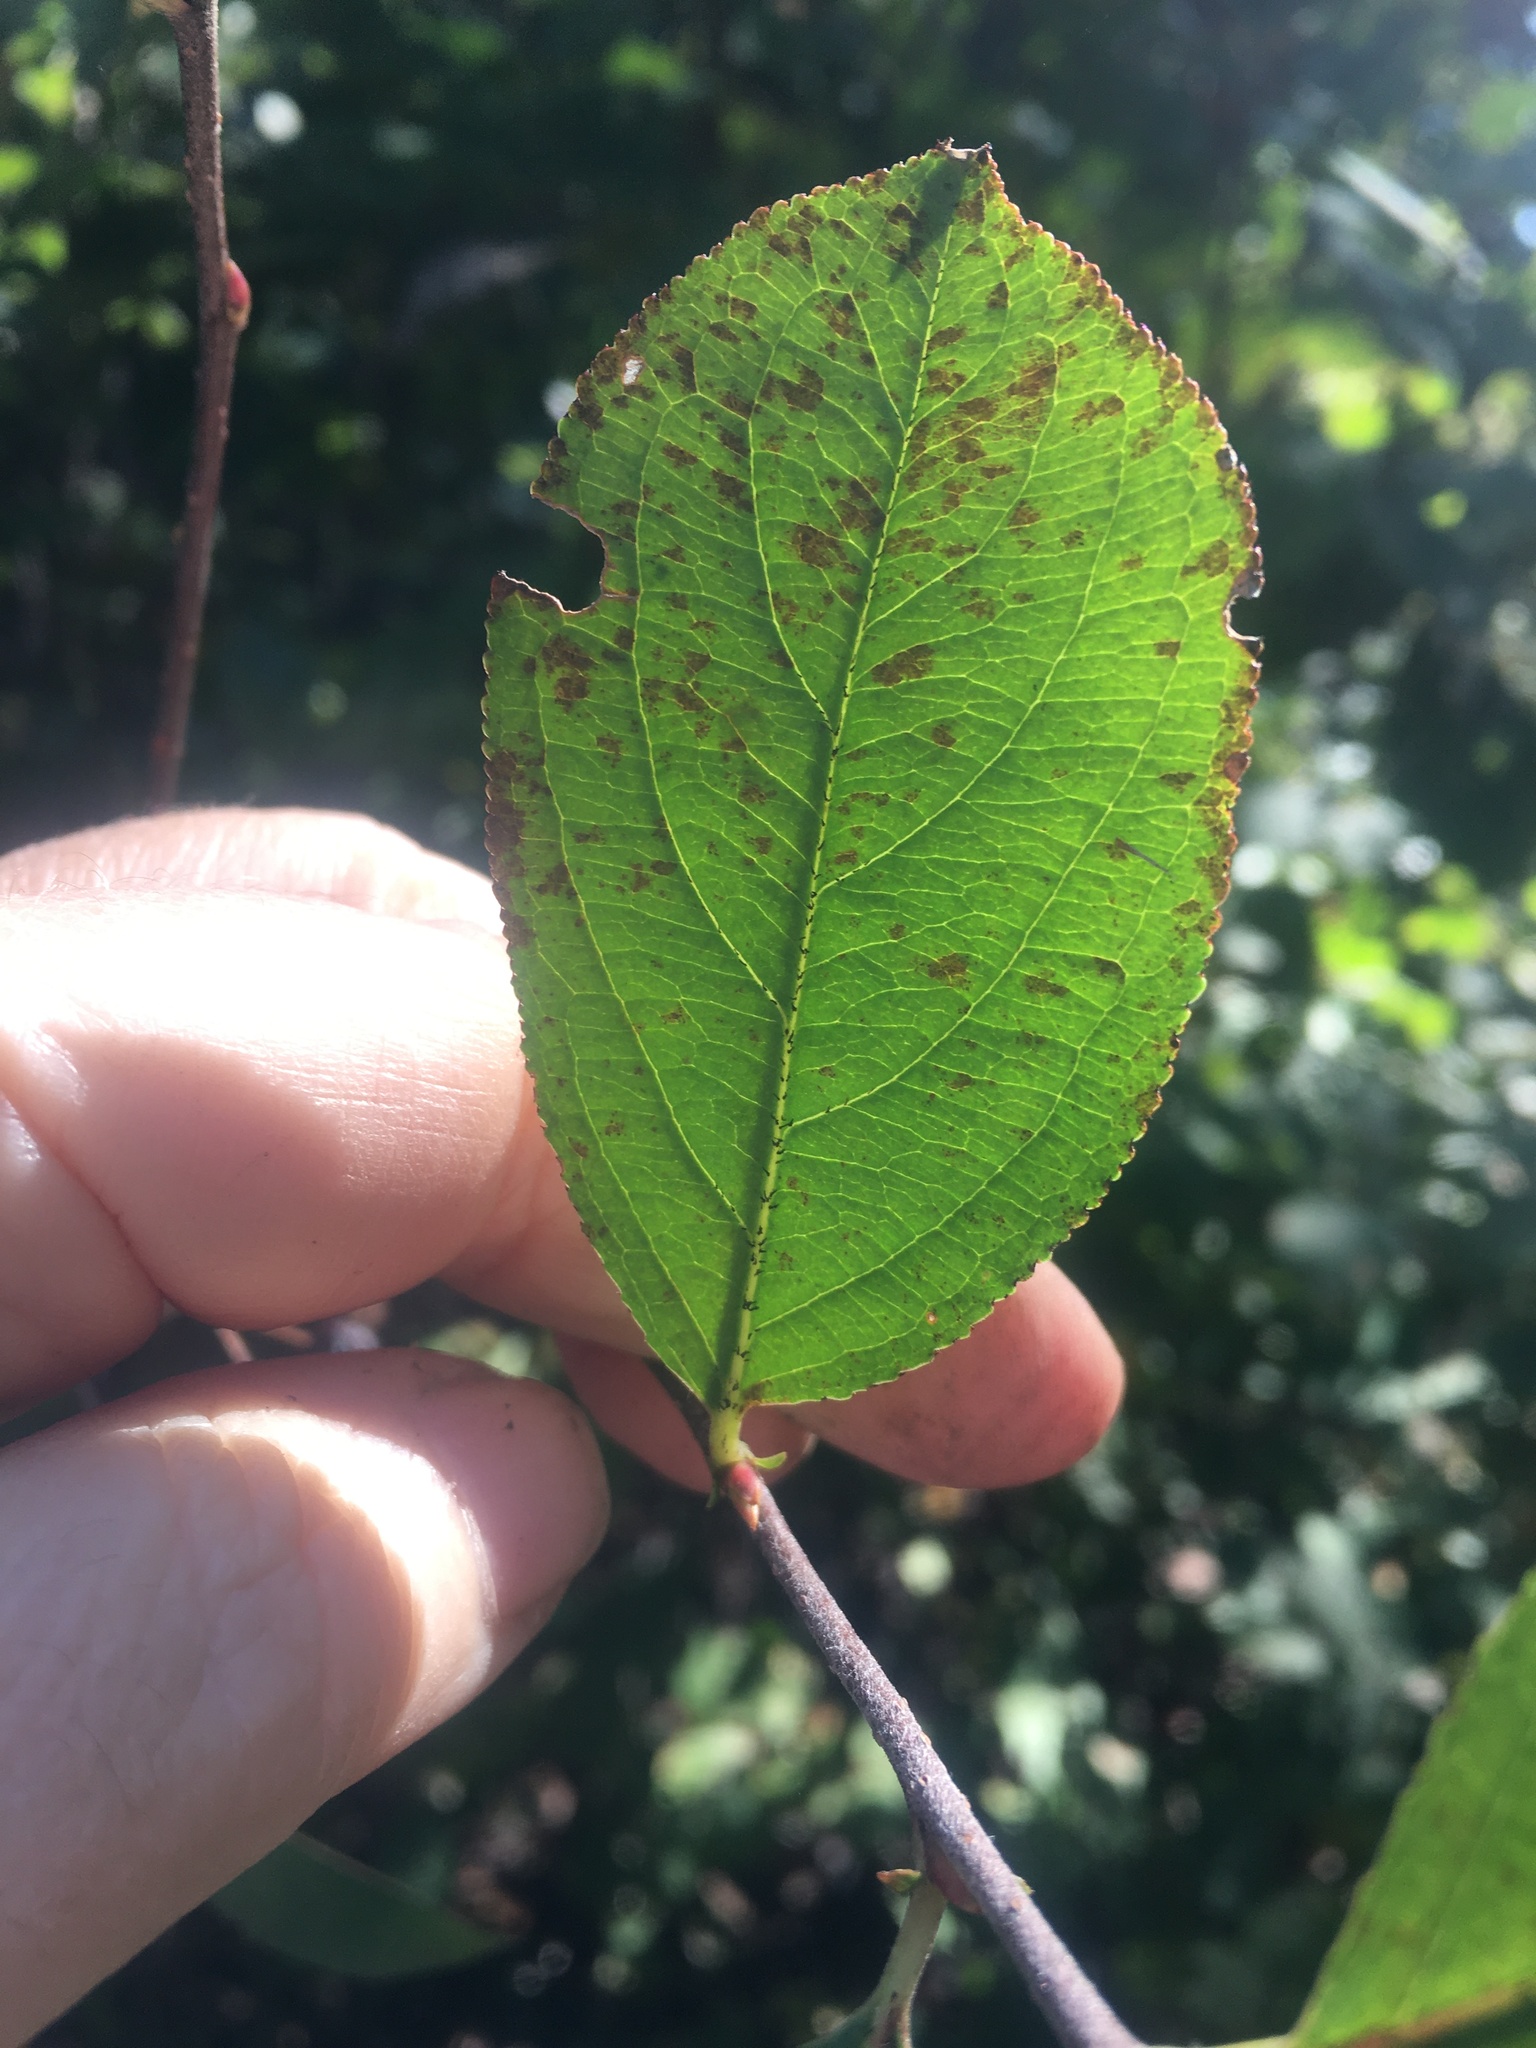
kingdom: Plantae
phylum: Tracheophyta
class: Magnoliopsida
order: Rosales
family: Rosaceae
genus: Aronia
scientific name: Aronia arbutifolia
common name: Red chokeberry
